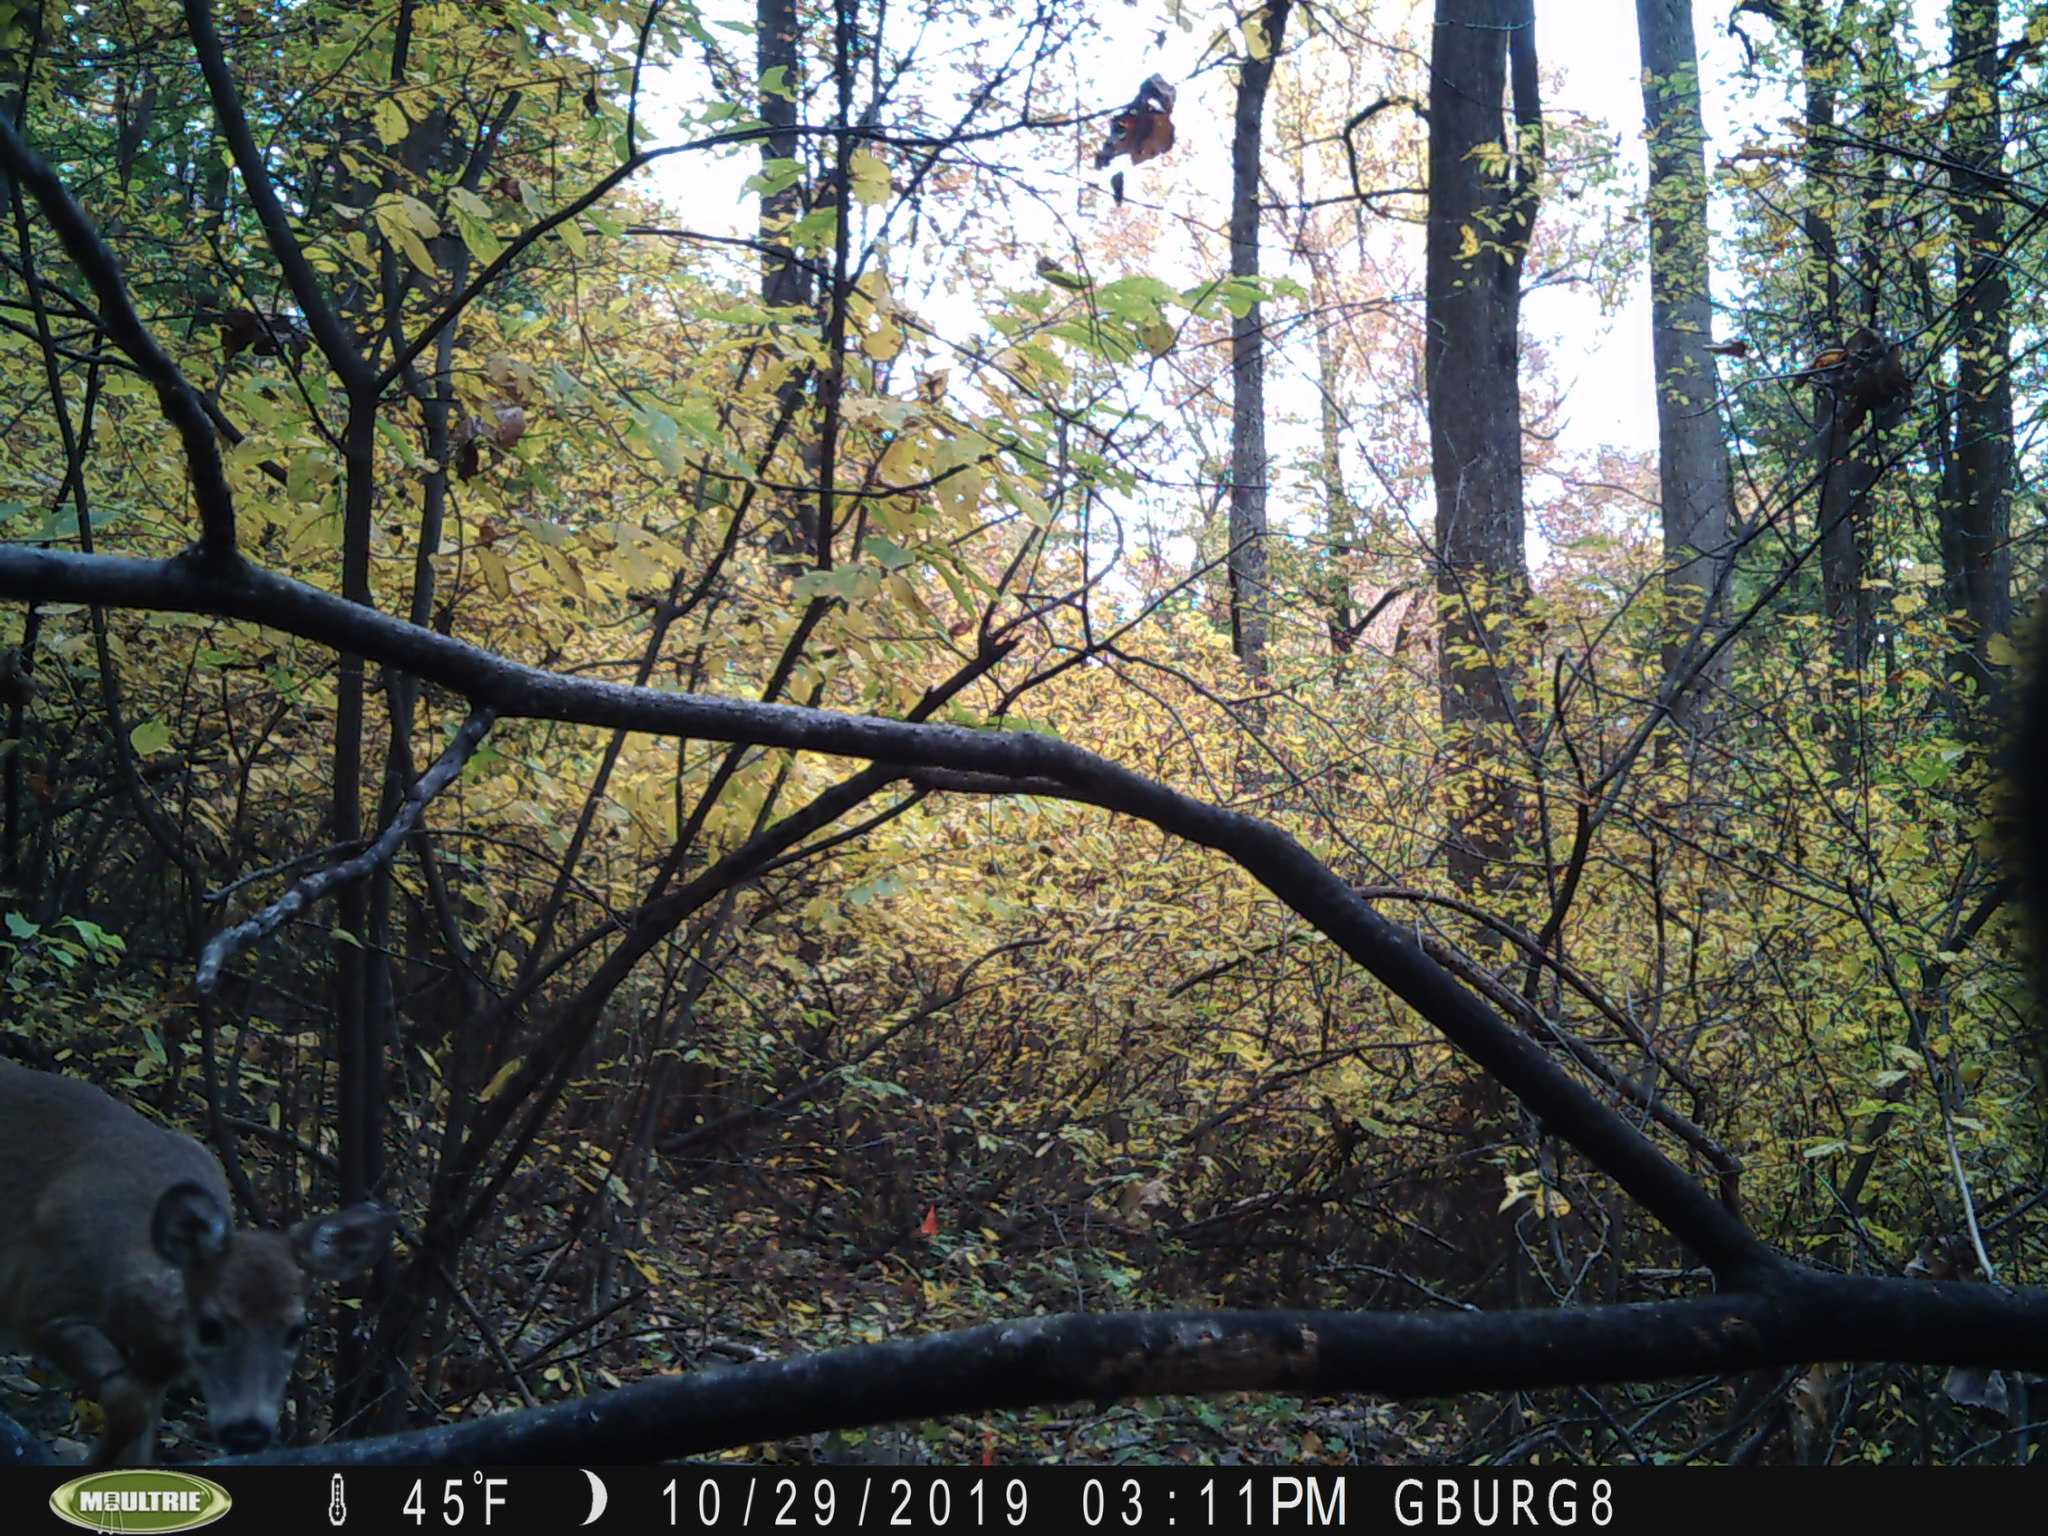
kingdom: Animalia
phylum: Chordata
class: Mammalia
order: Artiodactyla
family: Cervidae
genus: Odocoileus
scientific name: Odocoileus virginianus
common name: White-tailed deer
